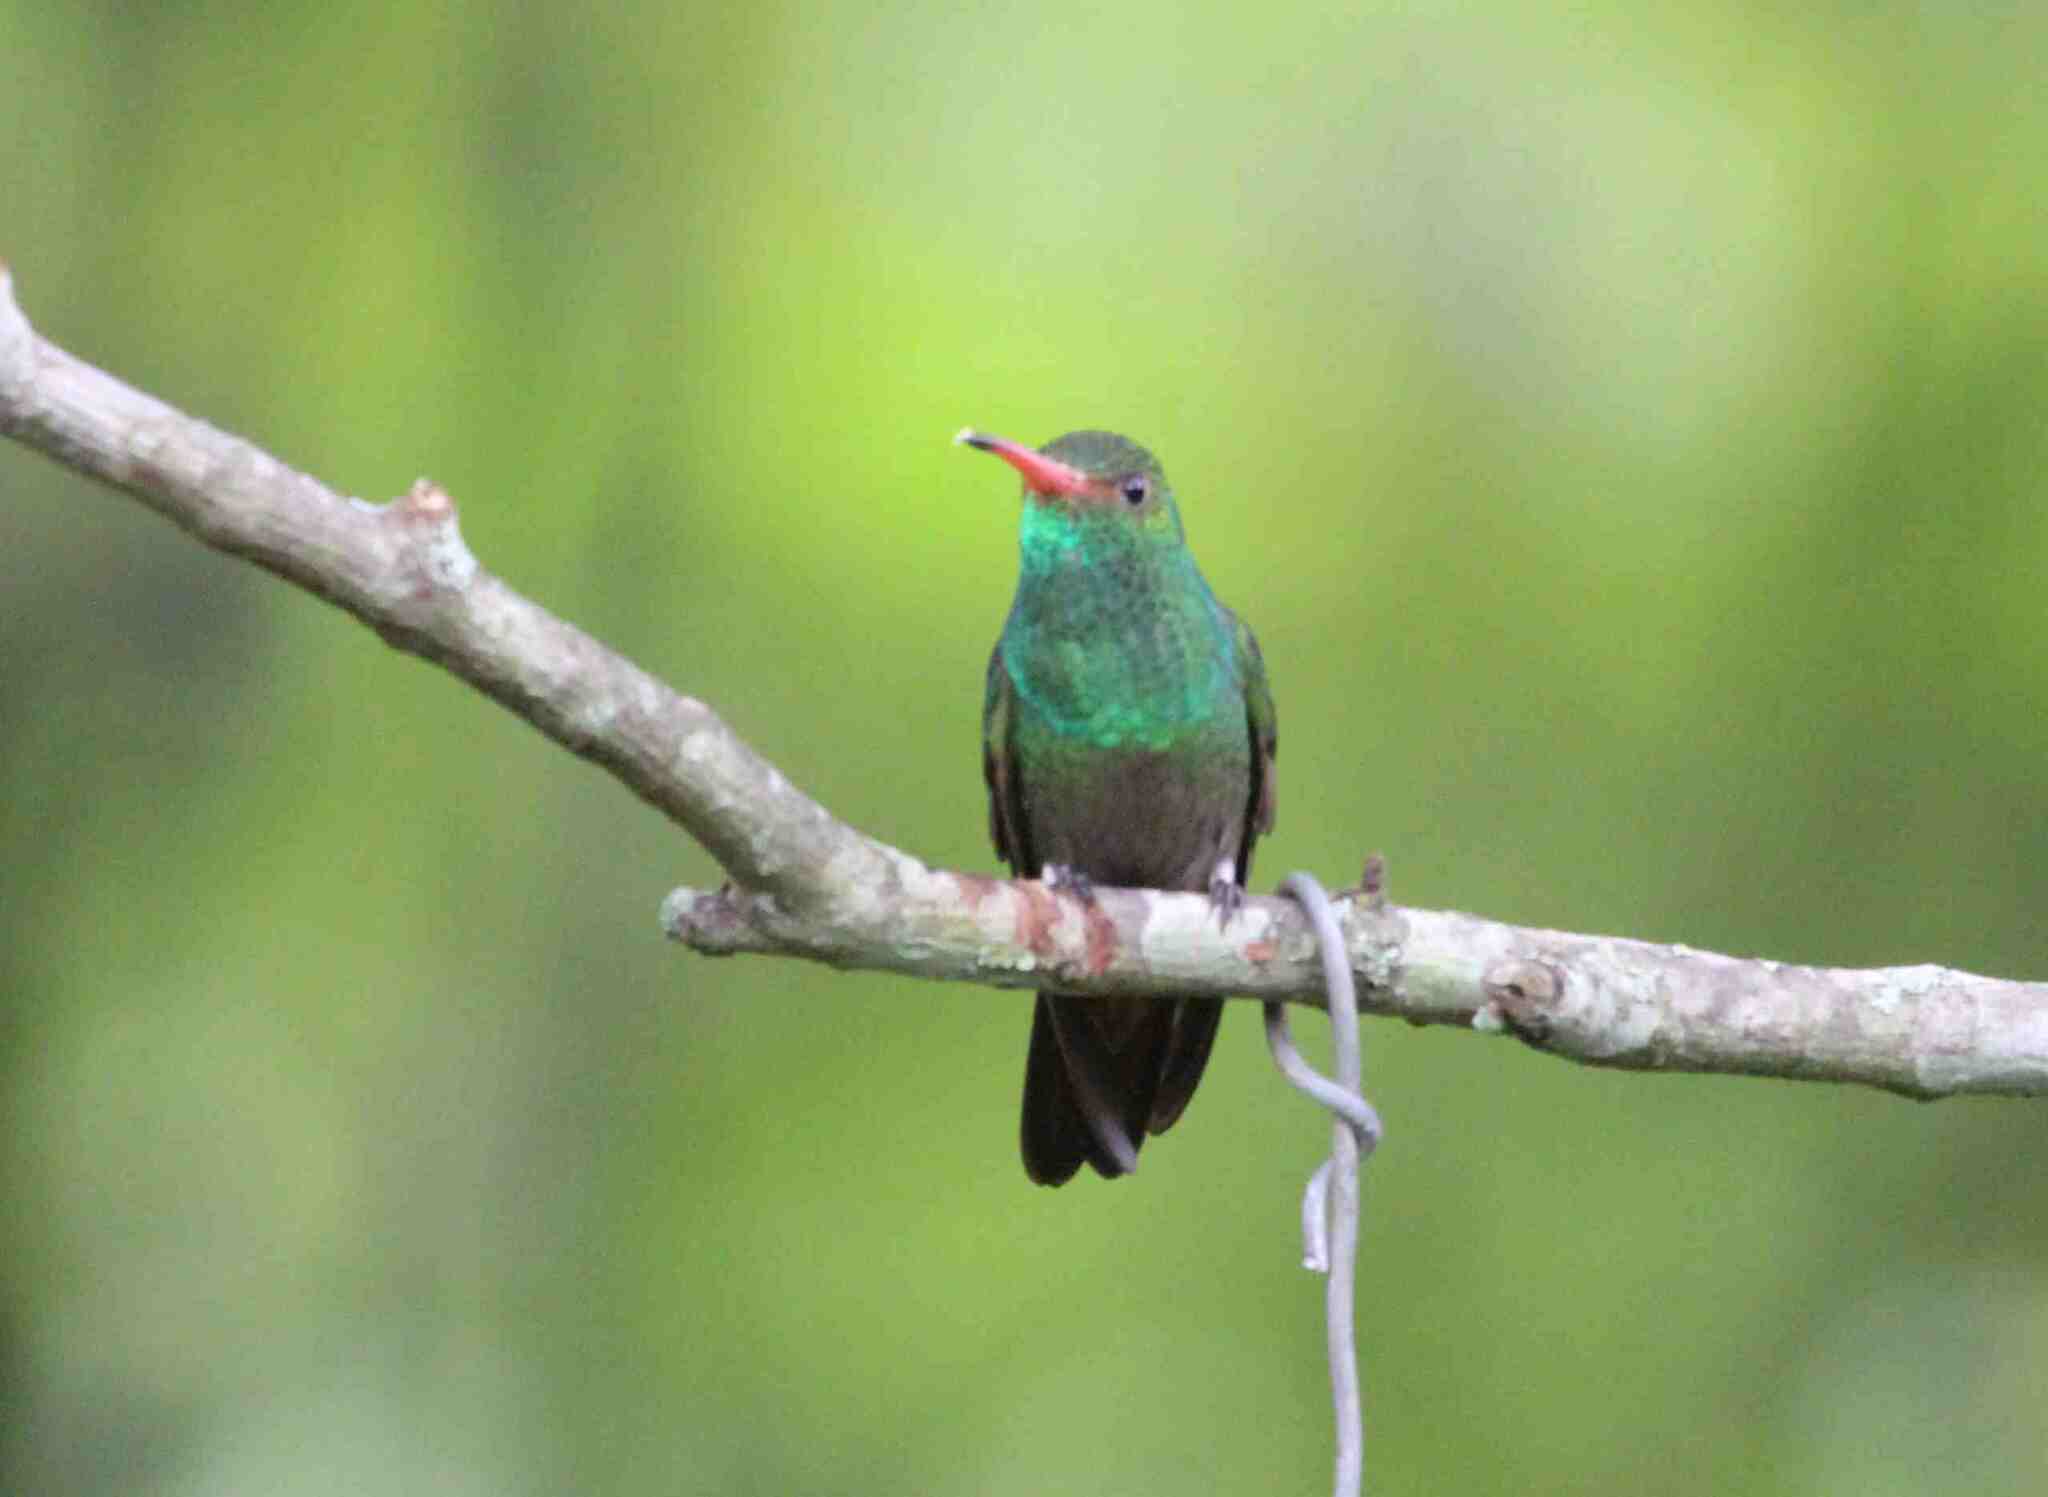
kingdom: Animalia
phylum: Chordata
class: Aves
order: Apodiformes
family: Trochilidae
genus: Amazilia
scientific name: Amazilia tzacatl
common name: Rufous-tailed hummingbird
